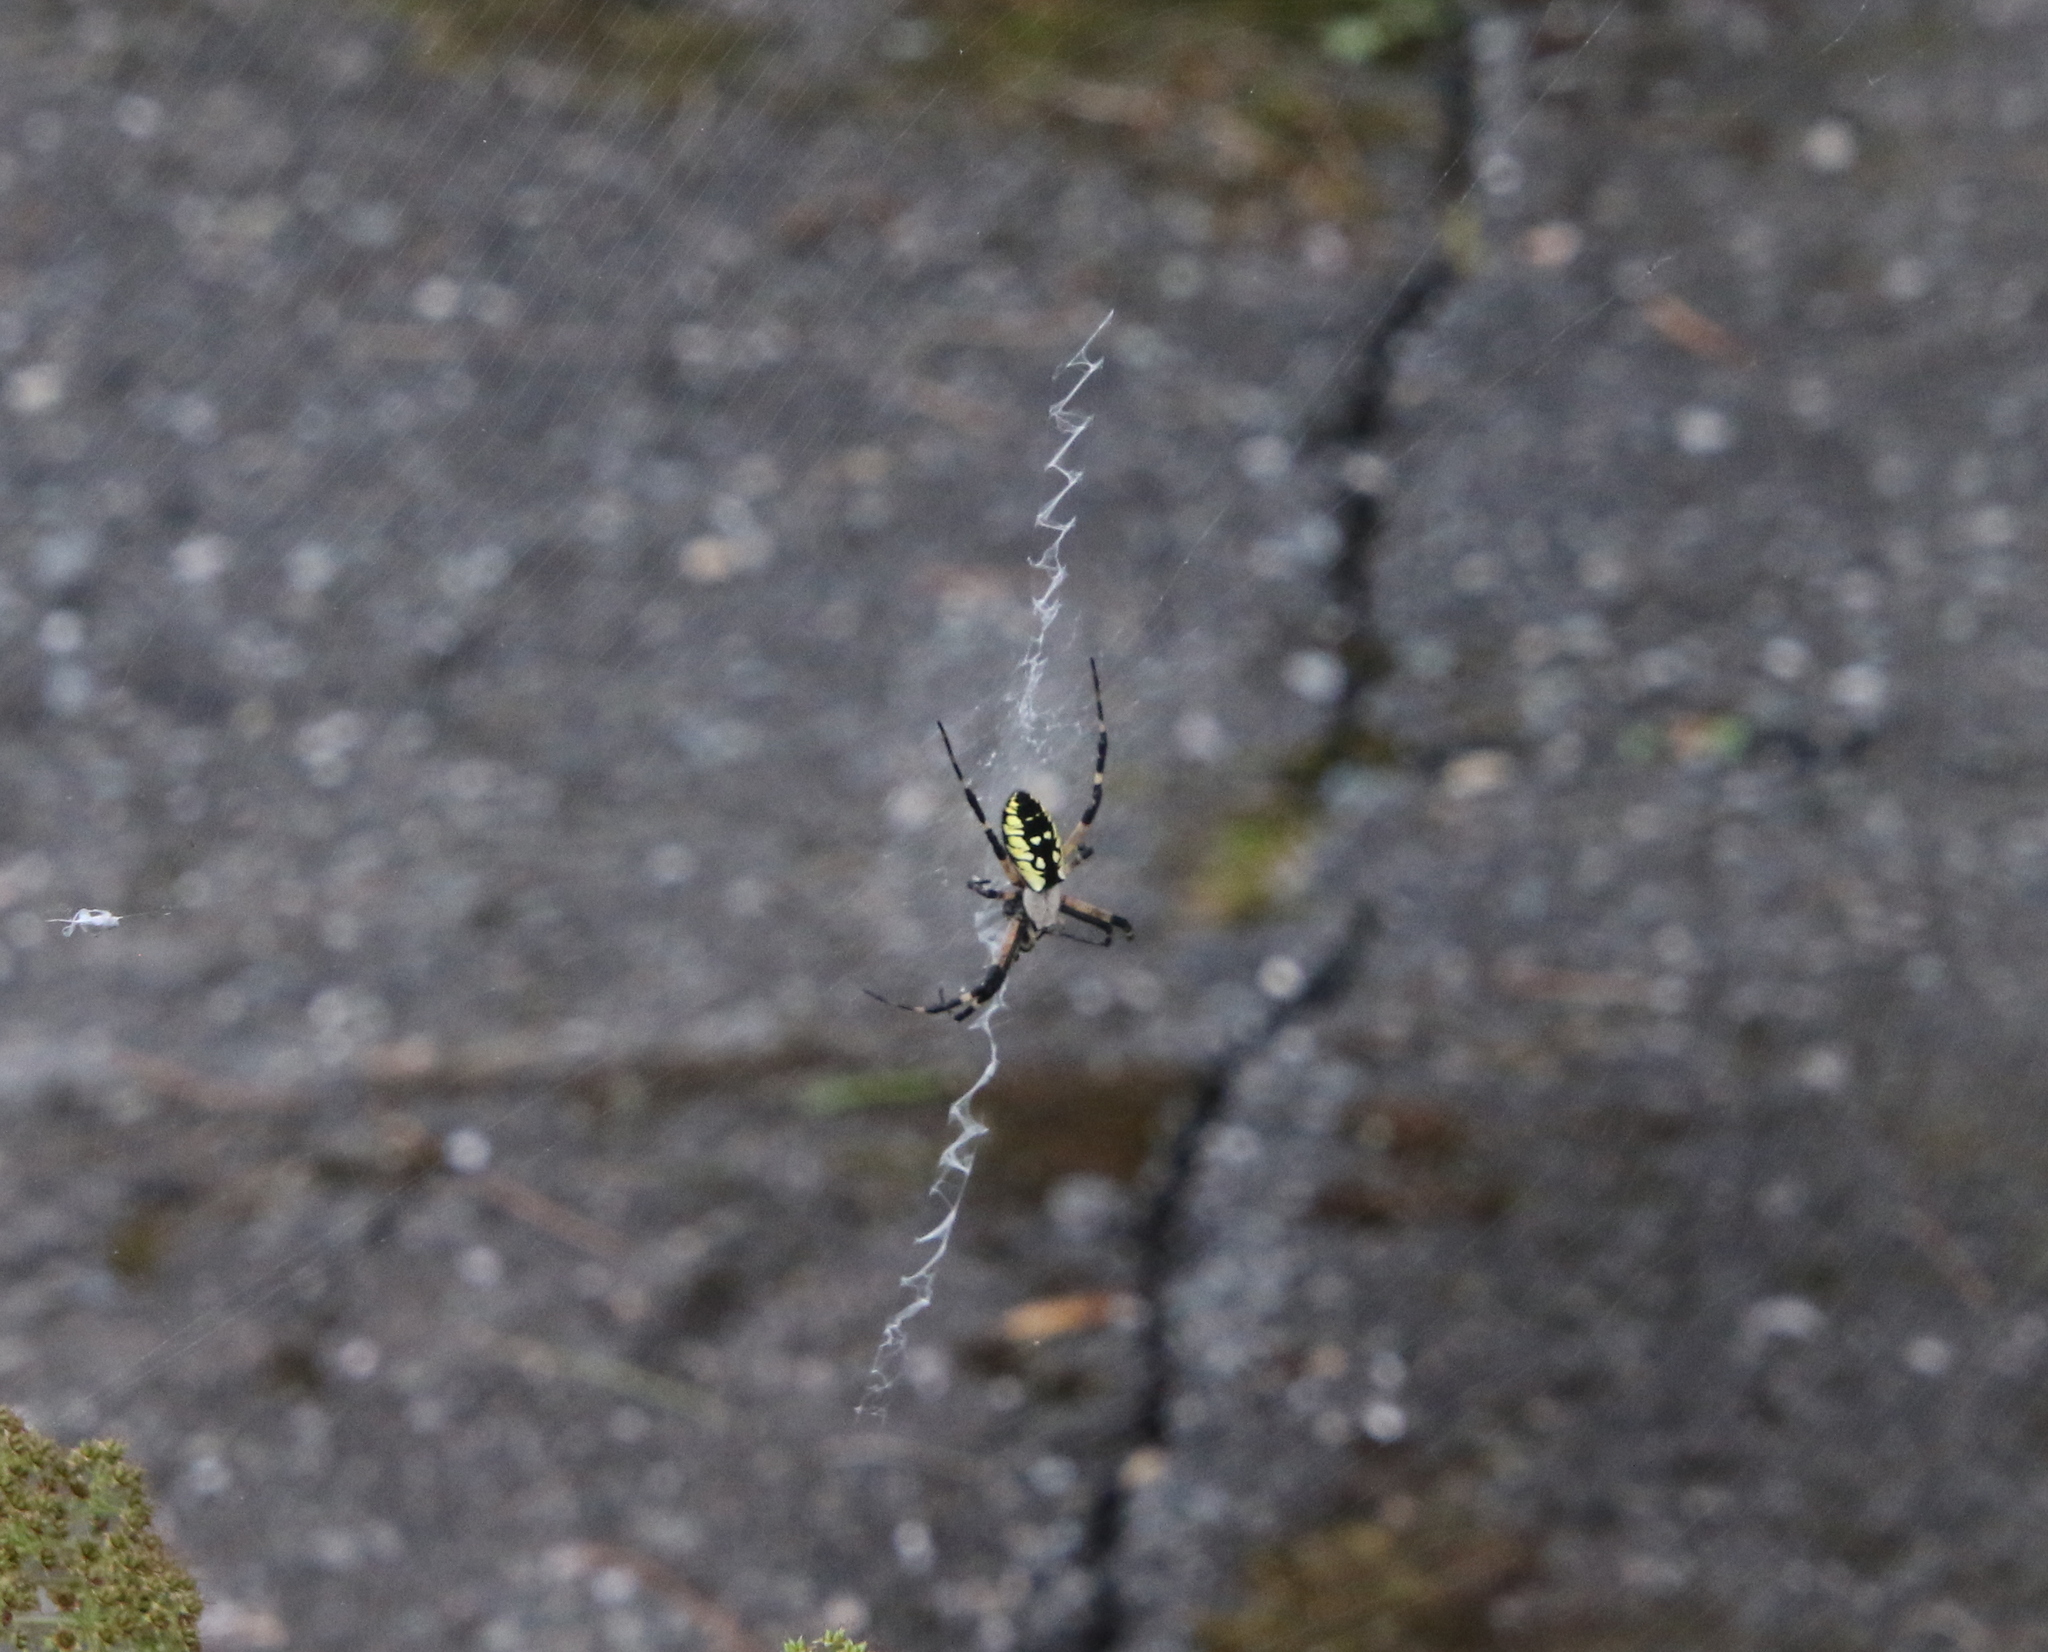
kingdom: Animalia
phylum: Arthropoda
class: Arachnida
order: Araneae
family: Araneidae
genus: Argiope
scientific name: Argiope aurantia
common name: Orb weavers
